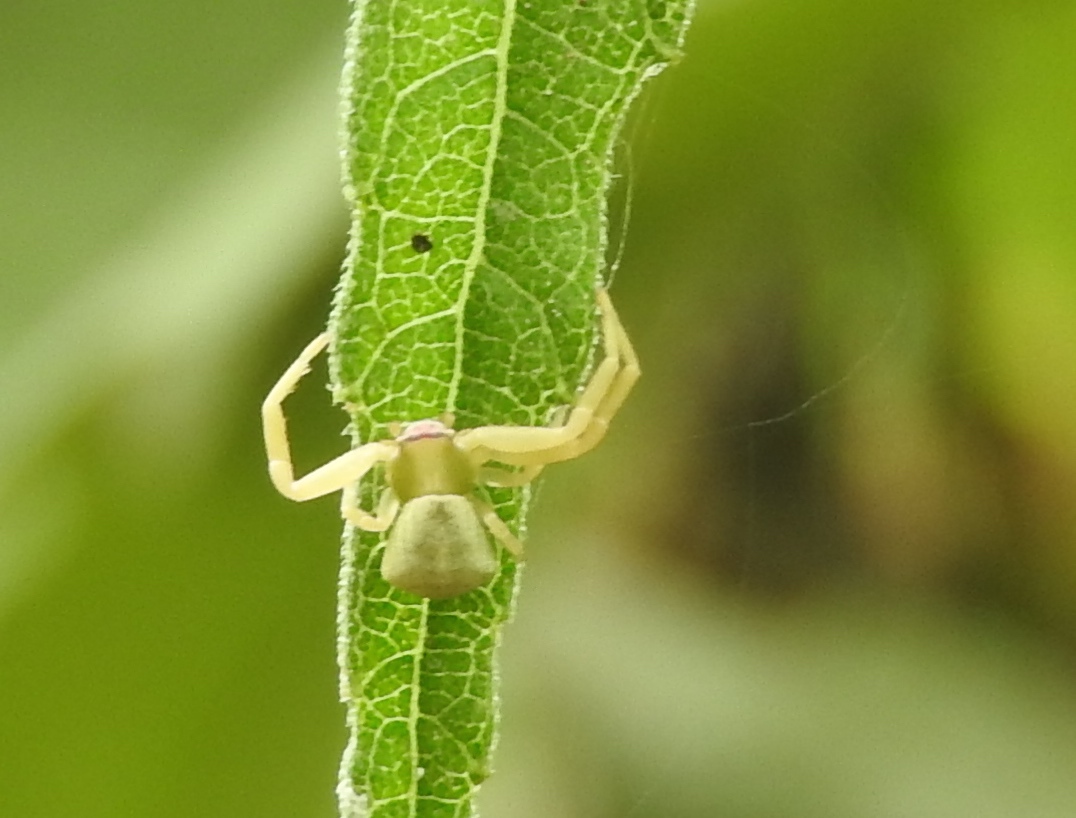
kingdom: Animalia
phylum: Arthropoda
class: Arachnida
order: Araneae
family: Thomisidae
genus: Misumenoides
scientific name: Misumenoides formosipes
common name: White-banded crab spider
